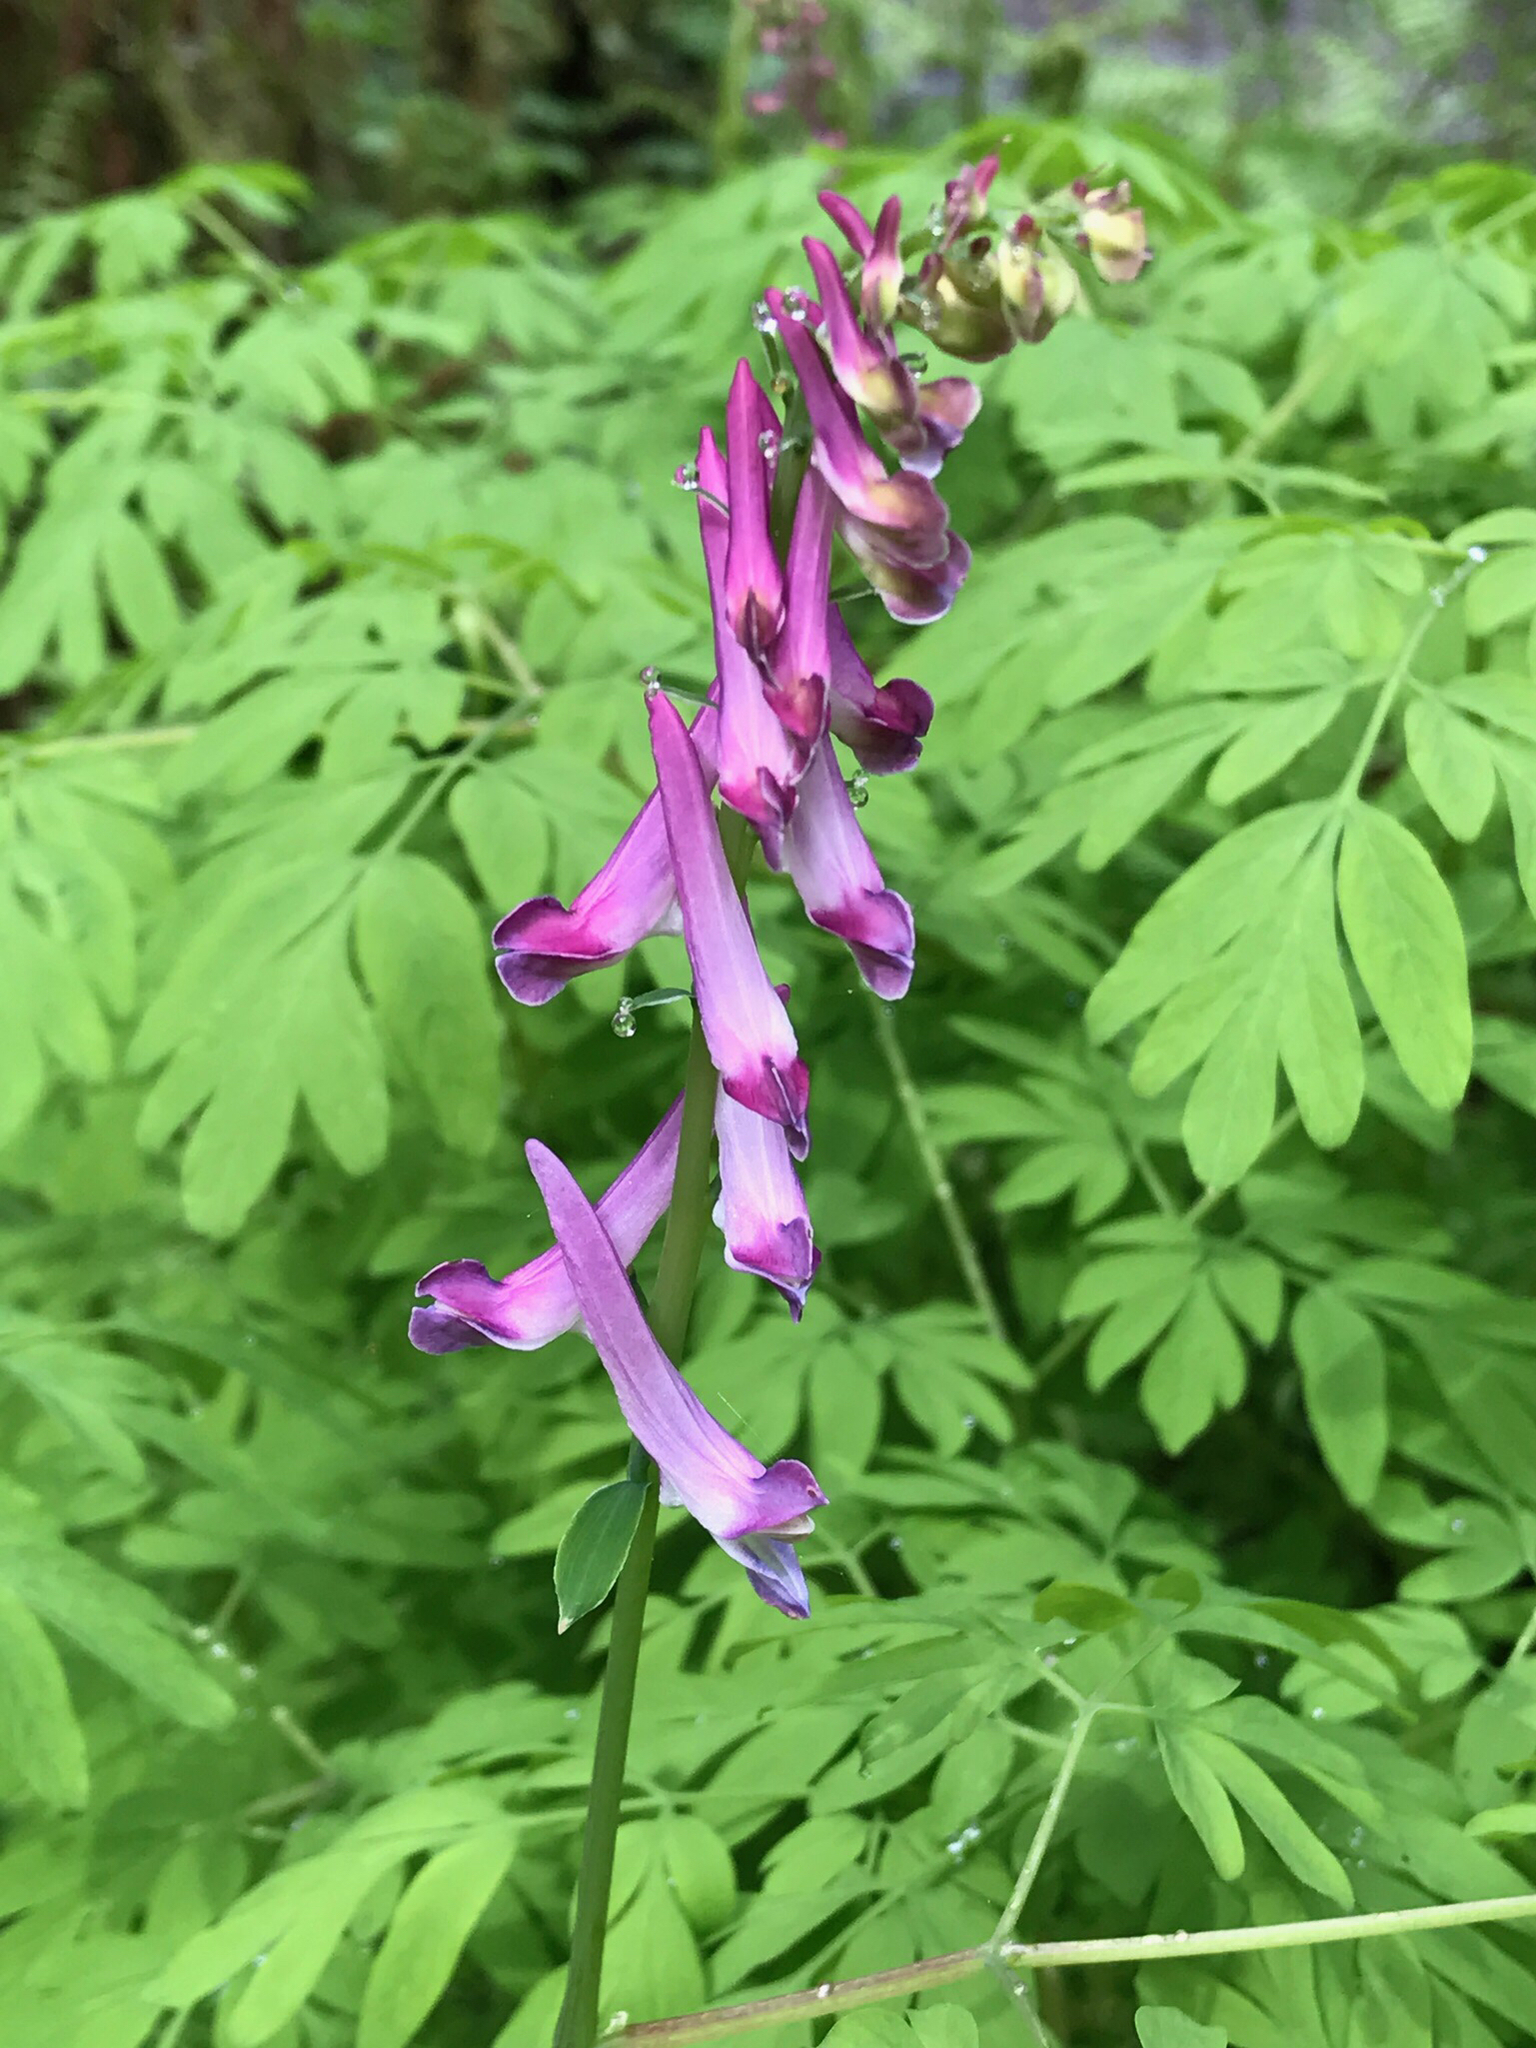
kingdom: Plantae
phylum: Tracheophyta
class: Magnoliopsida
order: Ranunculales
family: Papaveraceae
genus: Corydalis
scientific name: Corydalis scouleri
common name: Scouler's corydalis
